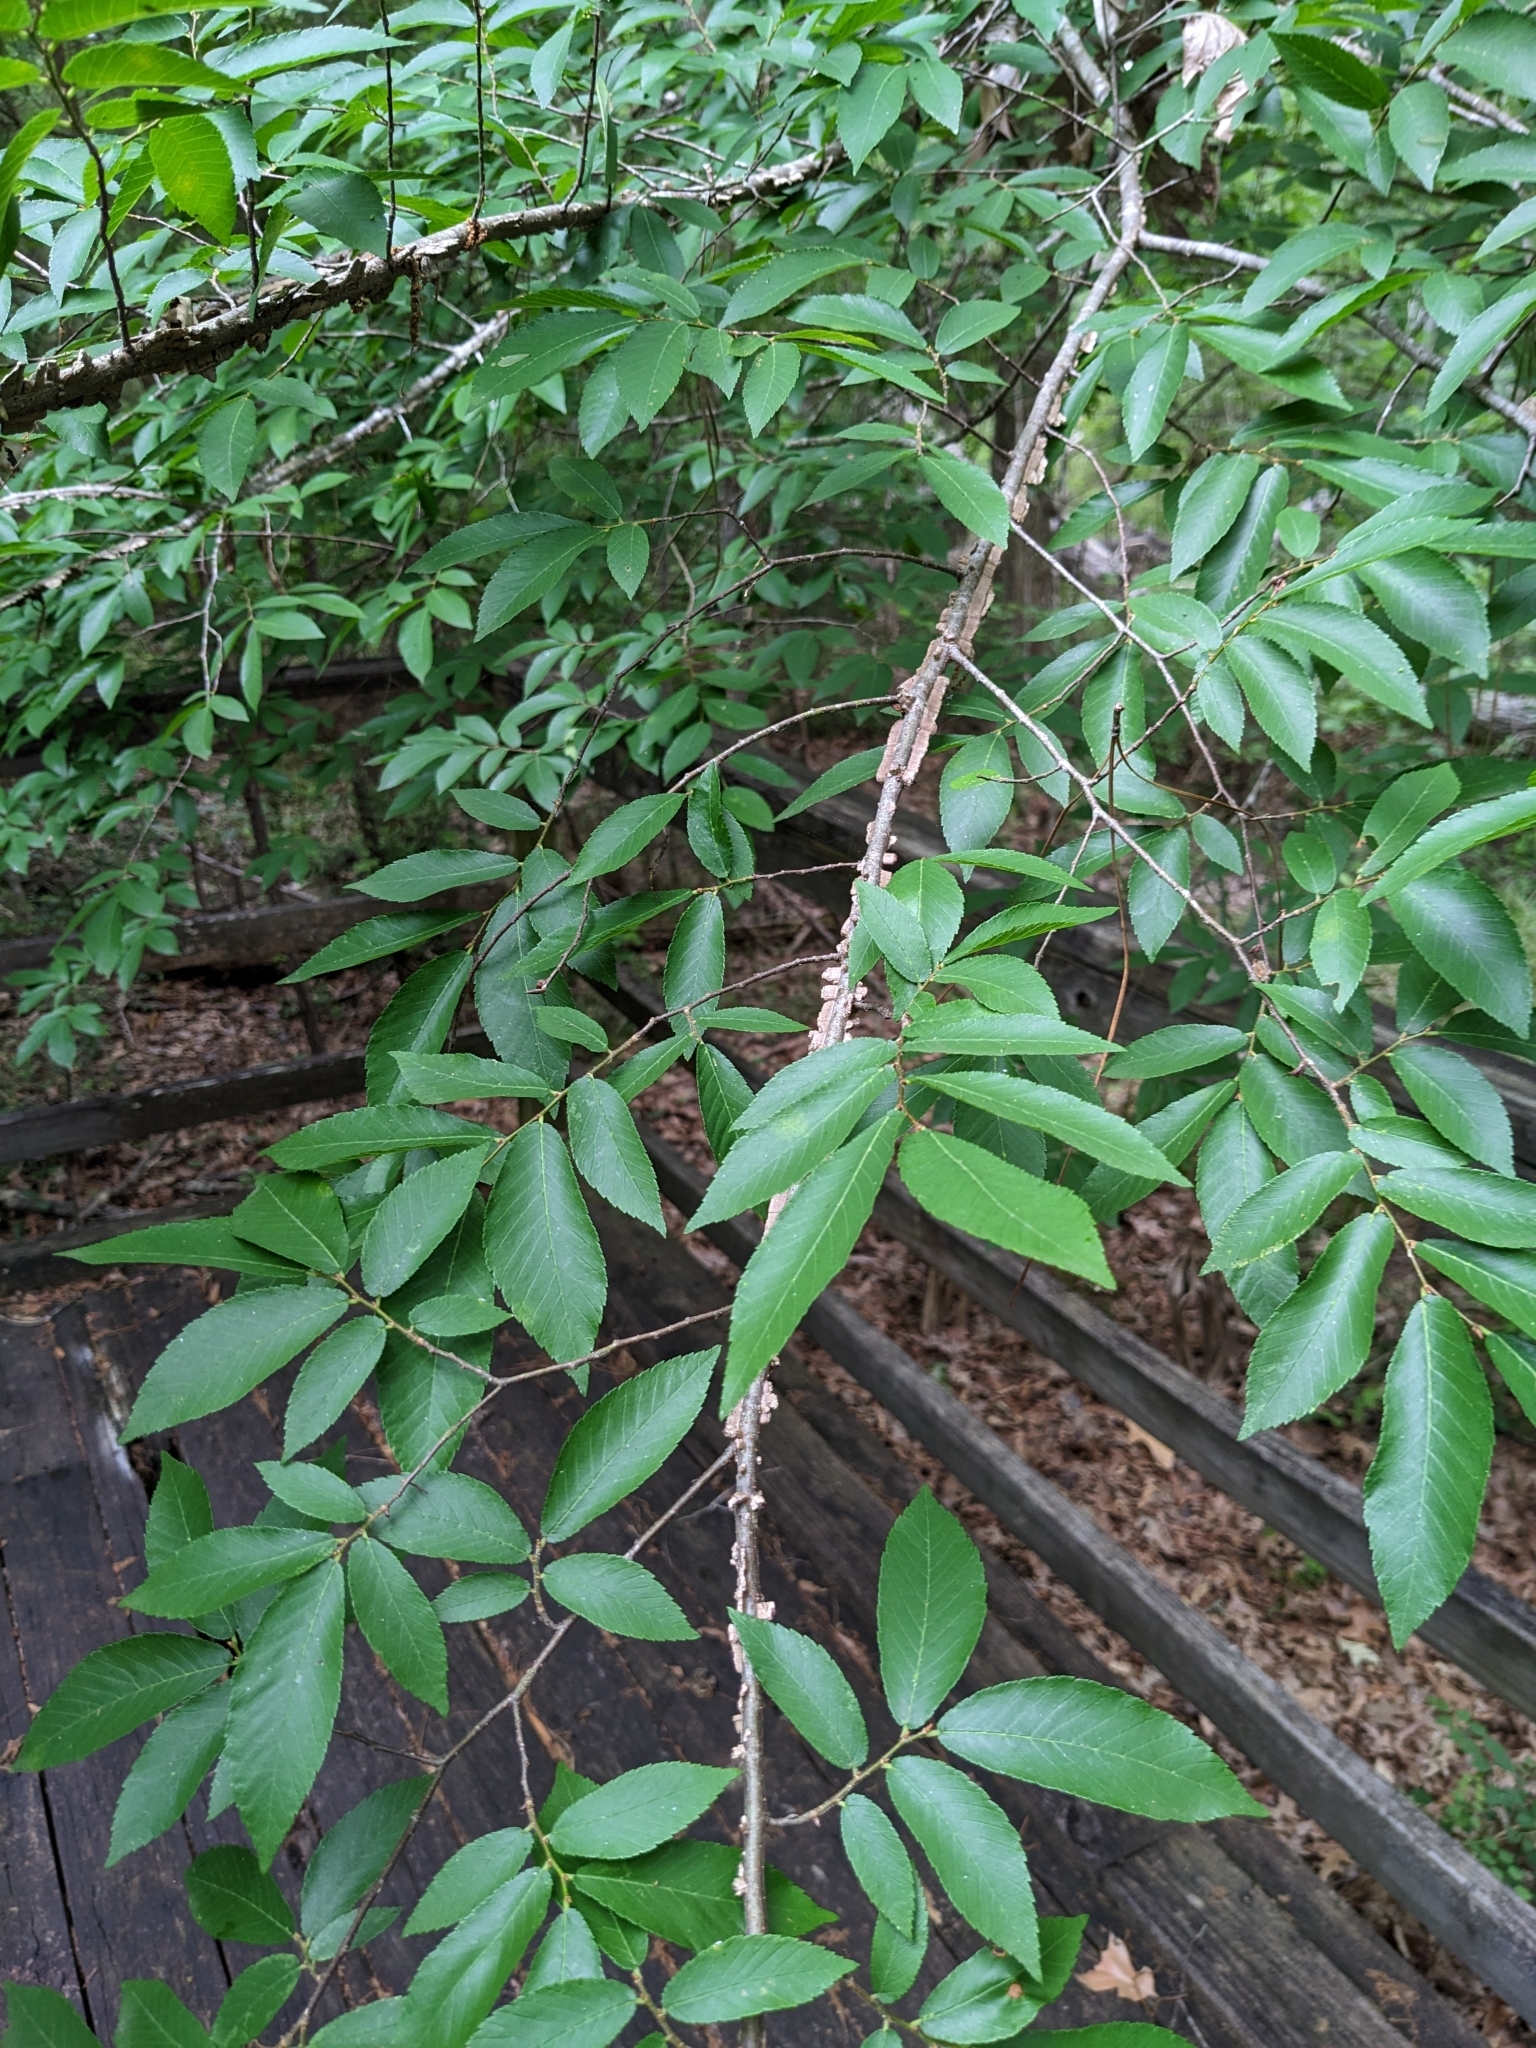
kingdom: Plantae
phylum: Tracheophyta
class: Magnoliopsida
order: Rosales
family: Ulmaceae
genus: Ulmus
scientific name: Ulmus alata
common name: Winged elm
